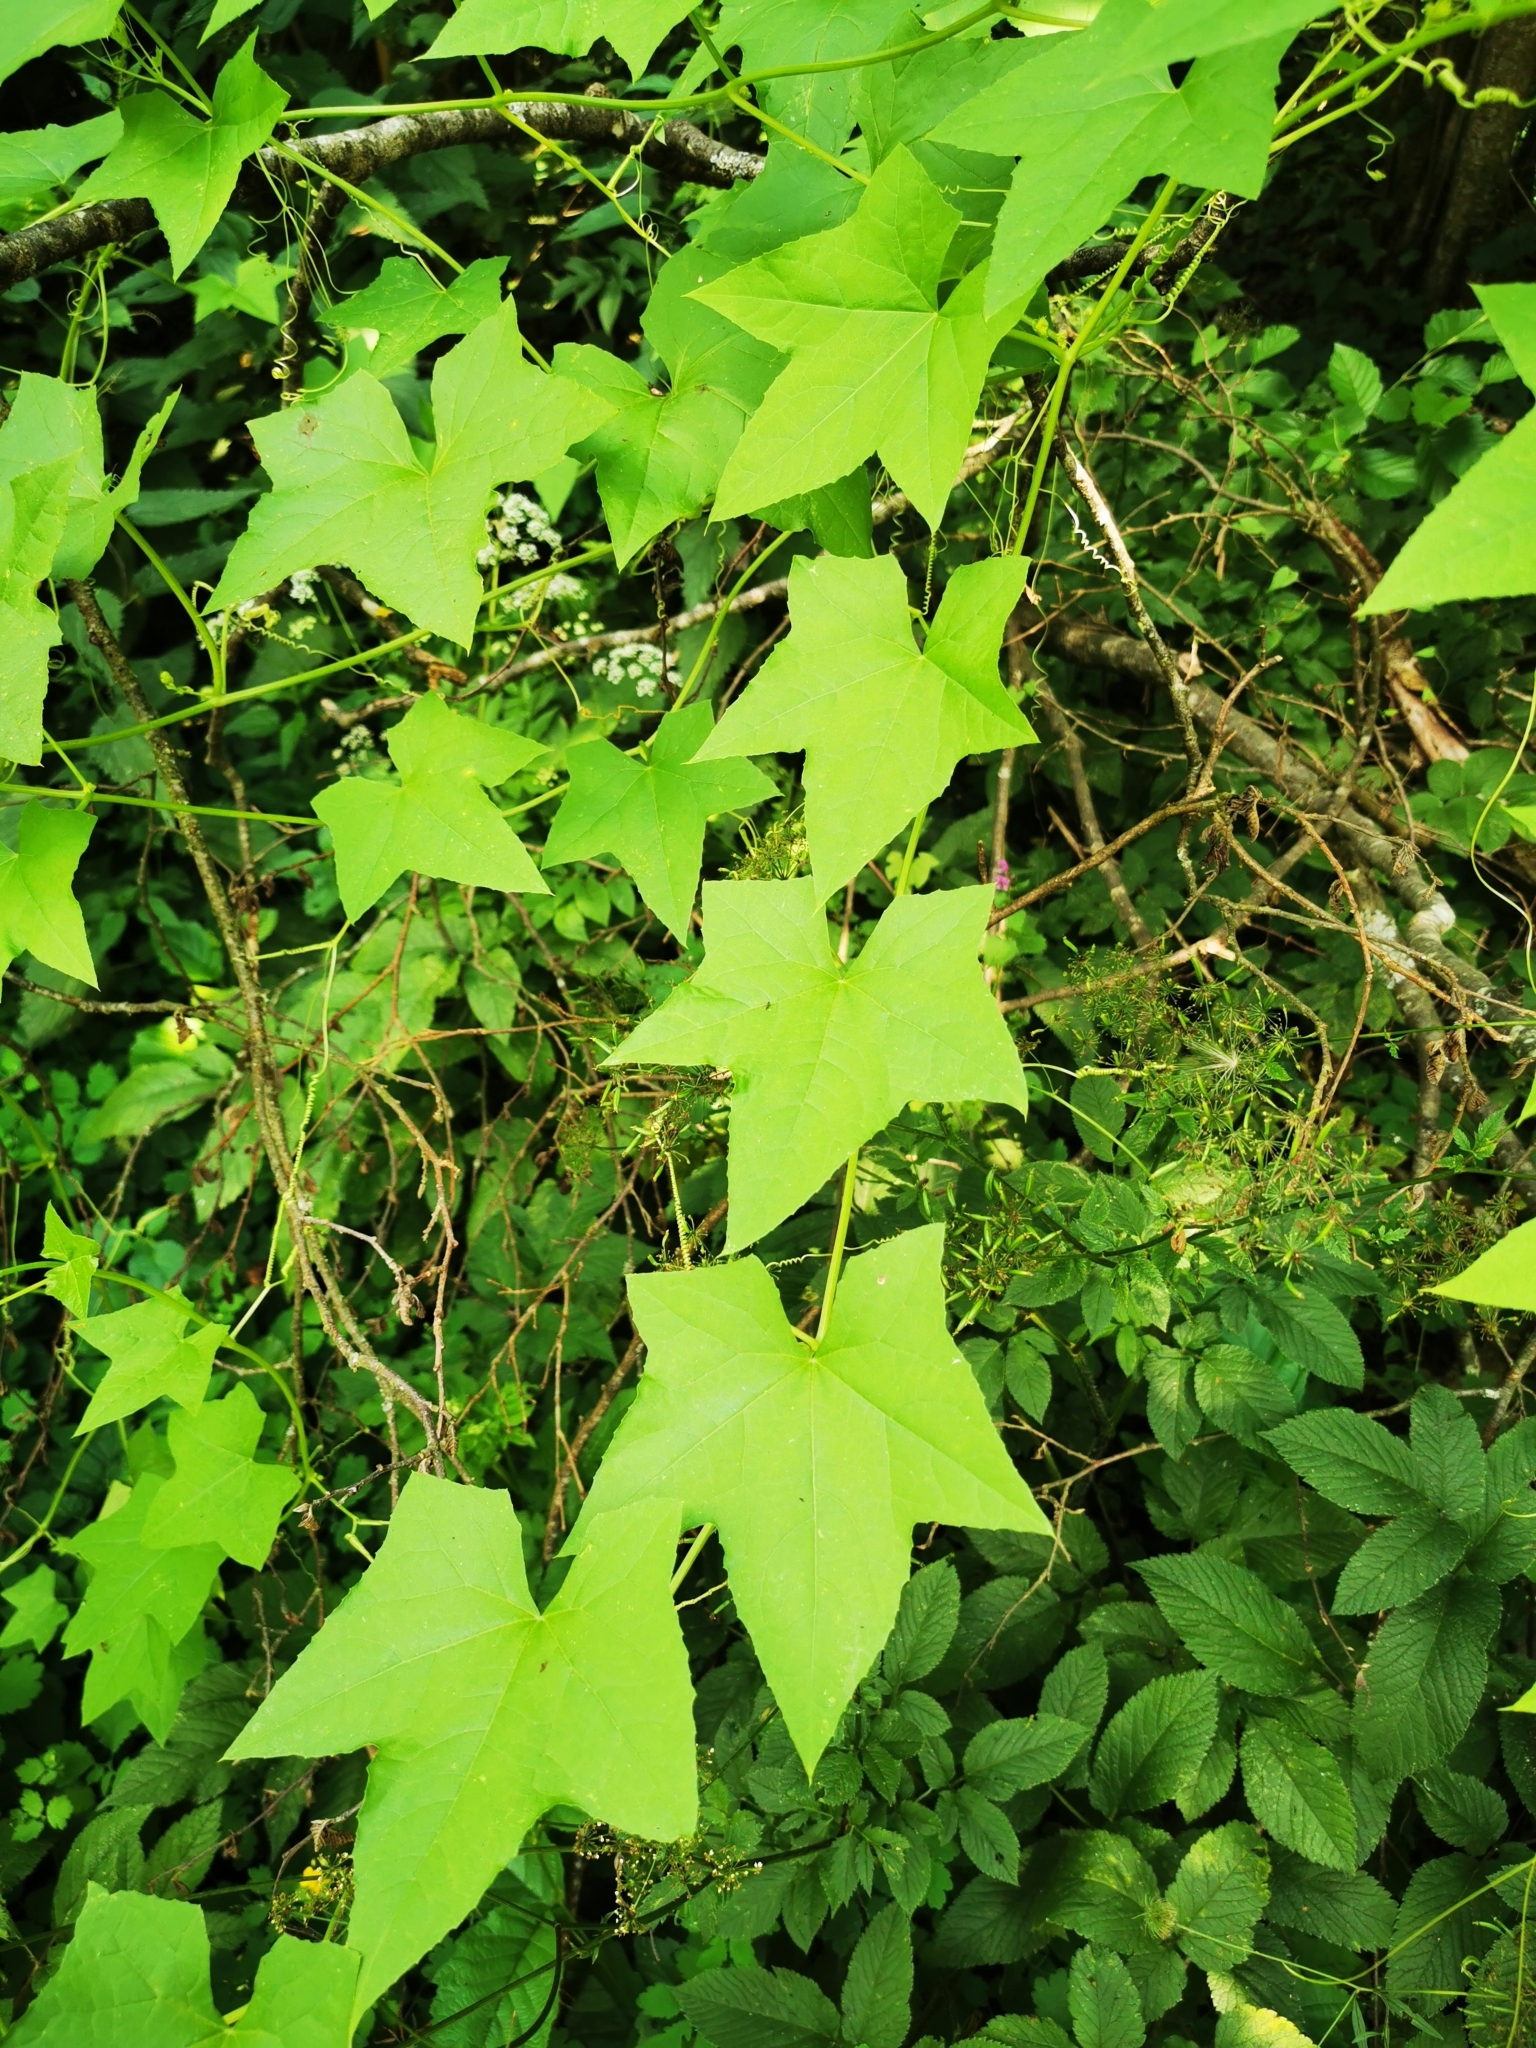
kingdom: Plantae
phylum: Tracheophyta
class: Magnoliopsida
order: Cucurbitales
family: Cucurbitaceae
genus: Echinocystis
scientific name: Echinocystis lobata
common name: Wild cucumber
